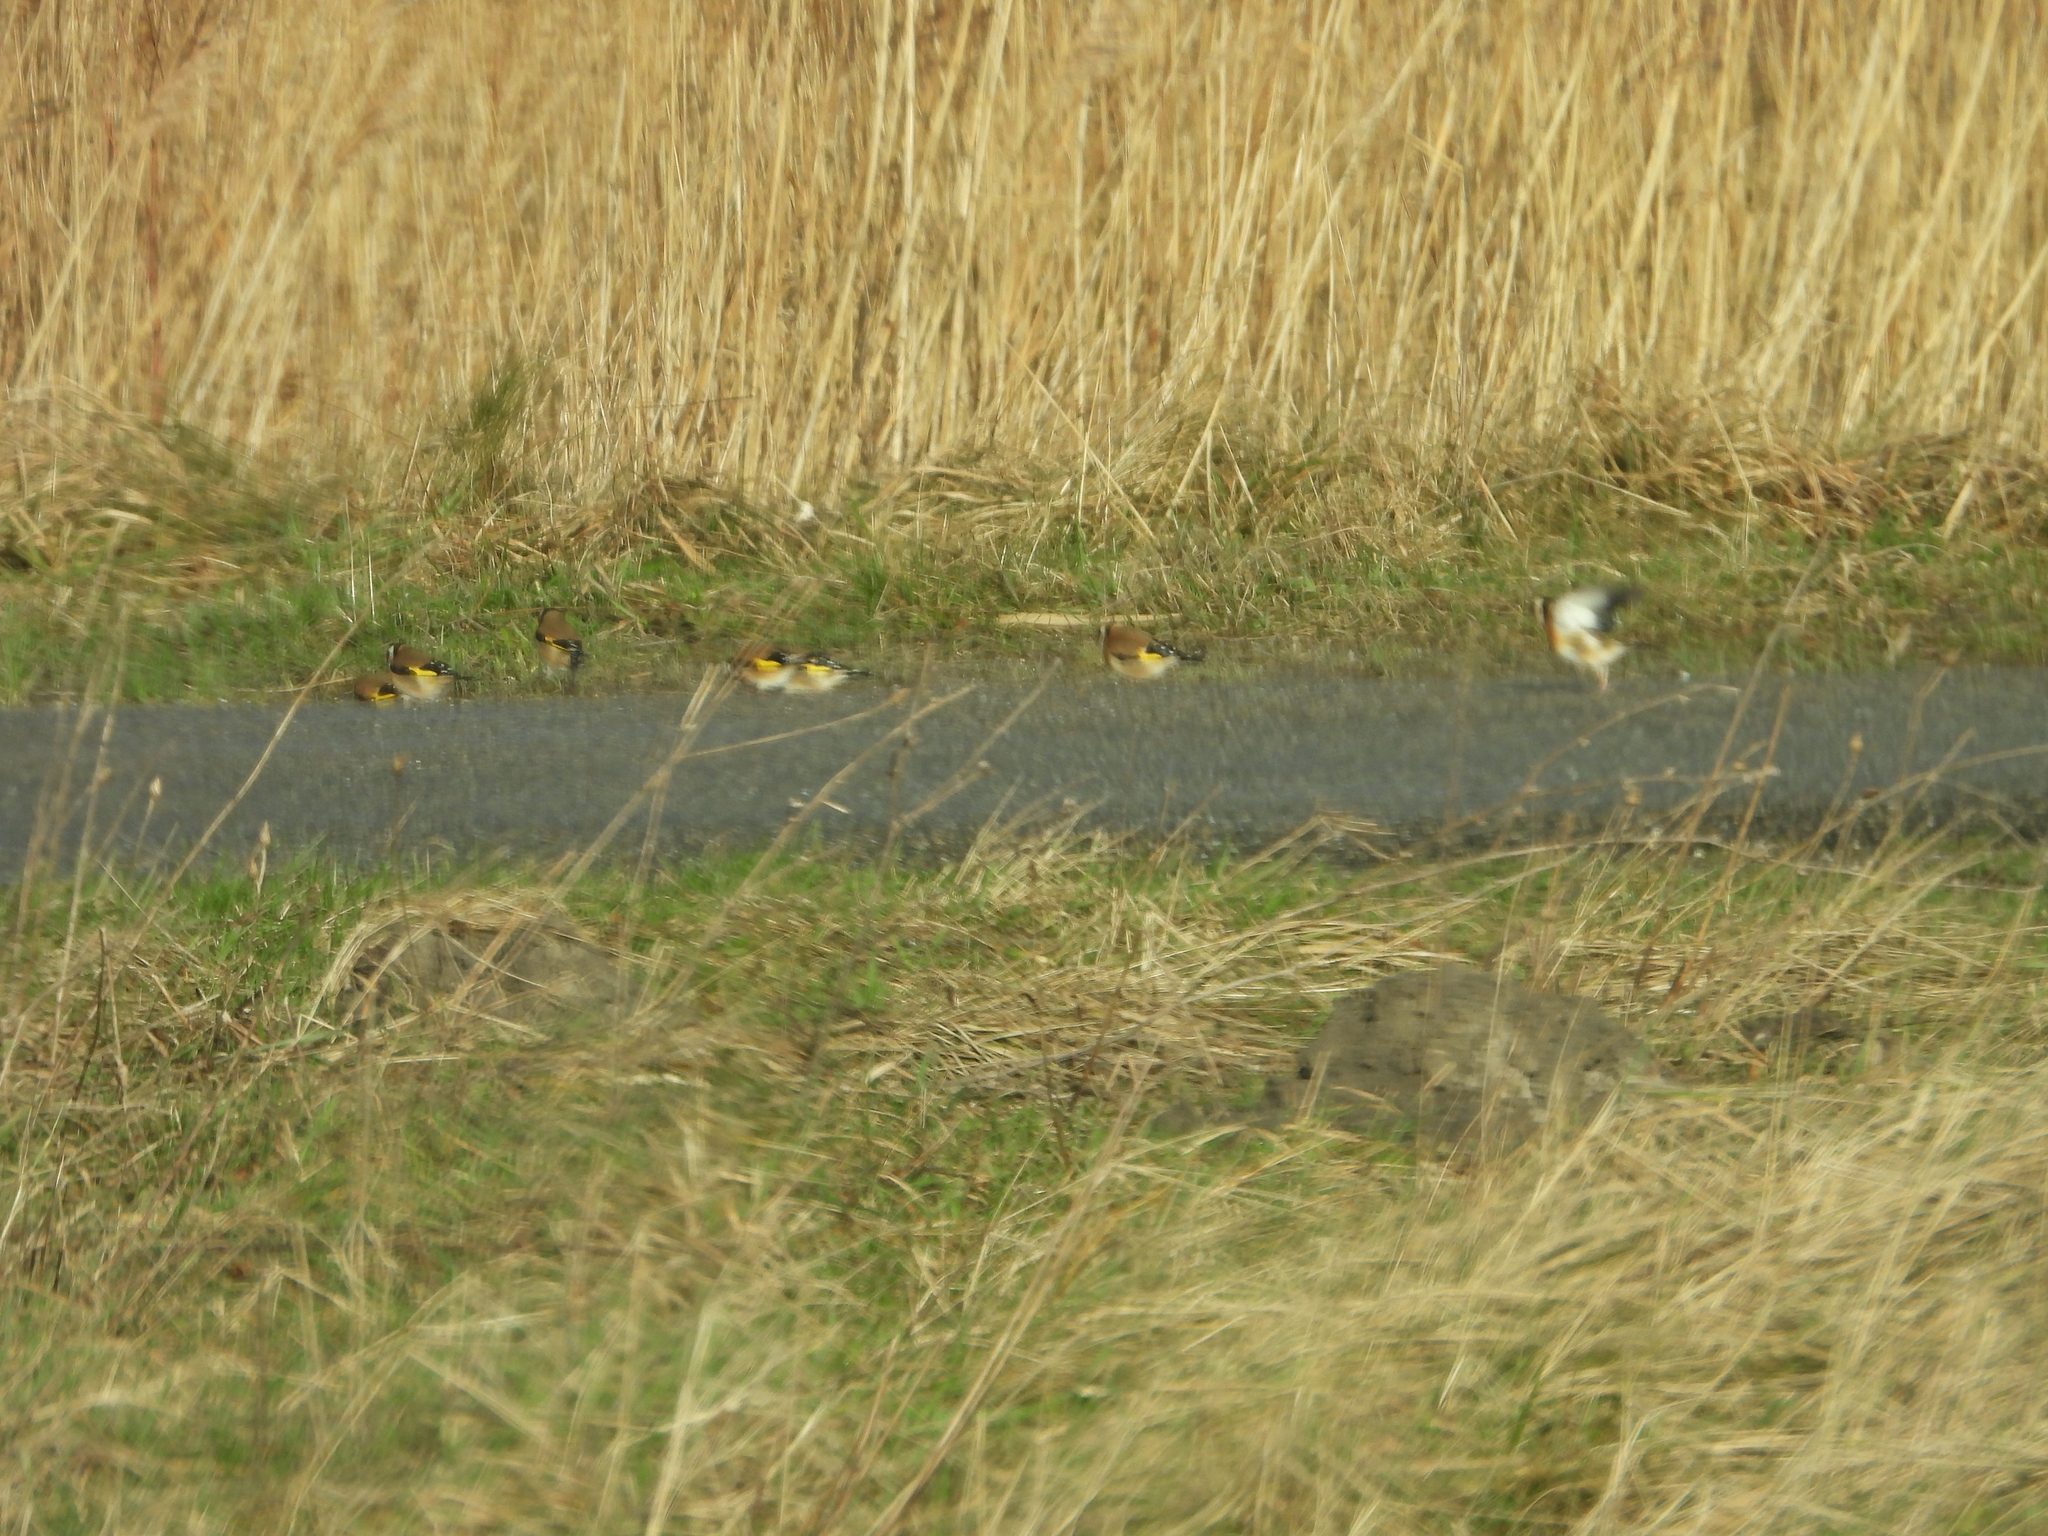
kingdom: Animalia
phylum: Chordata
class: Aves
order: Passeriformes
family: Fringillidae
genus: Carduelis
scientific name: Carduelis carduelis
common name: European goldfinch
